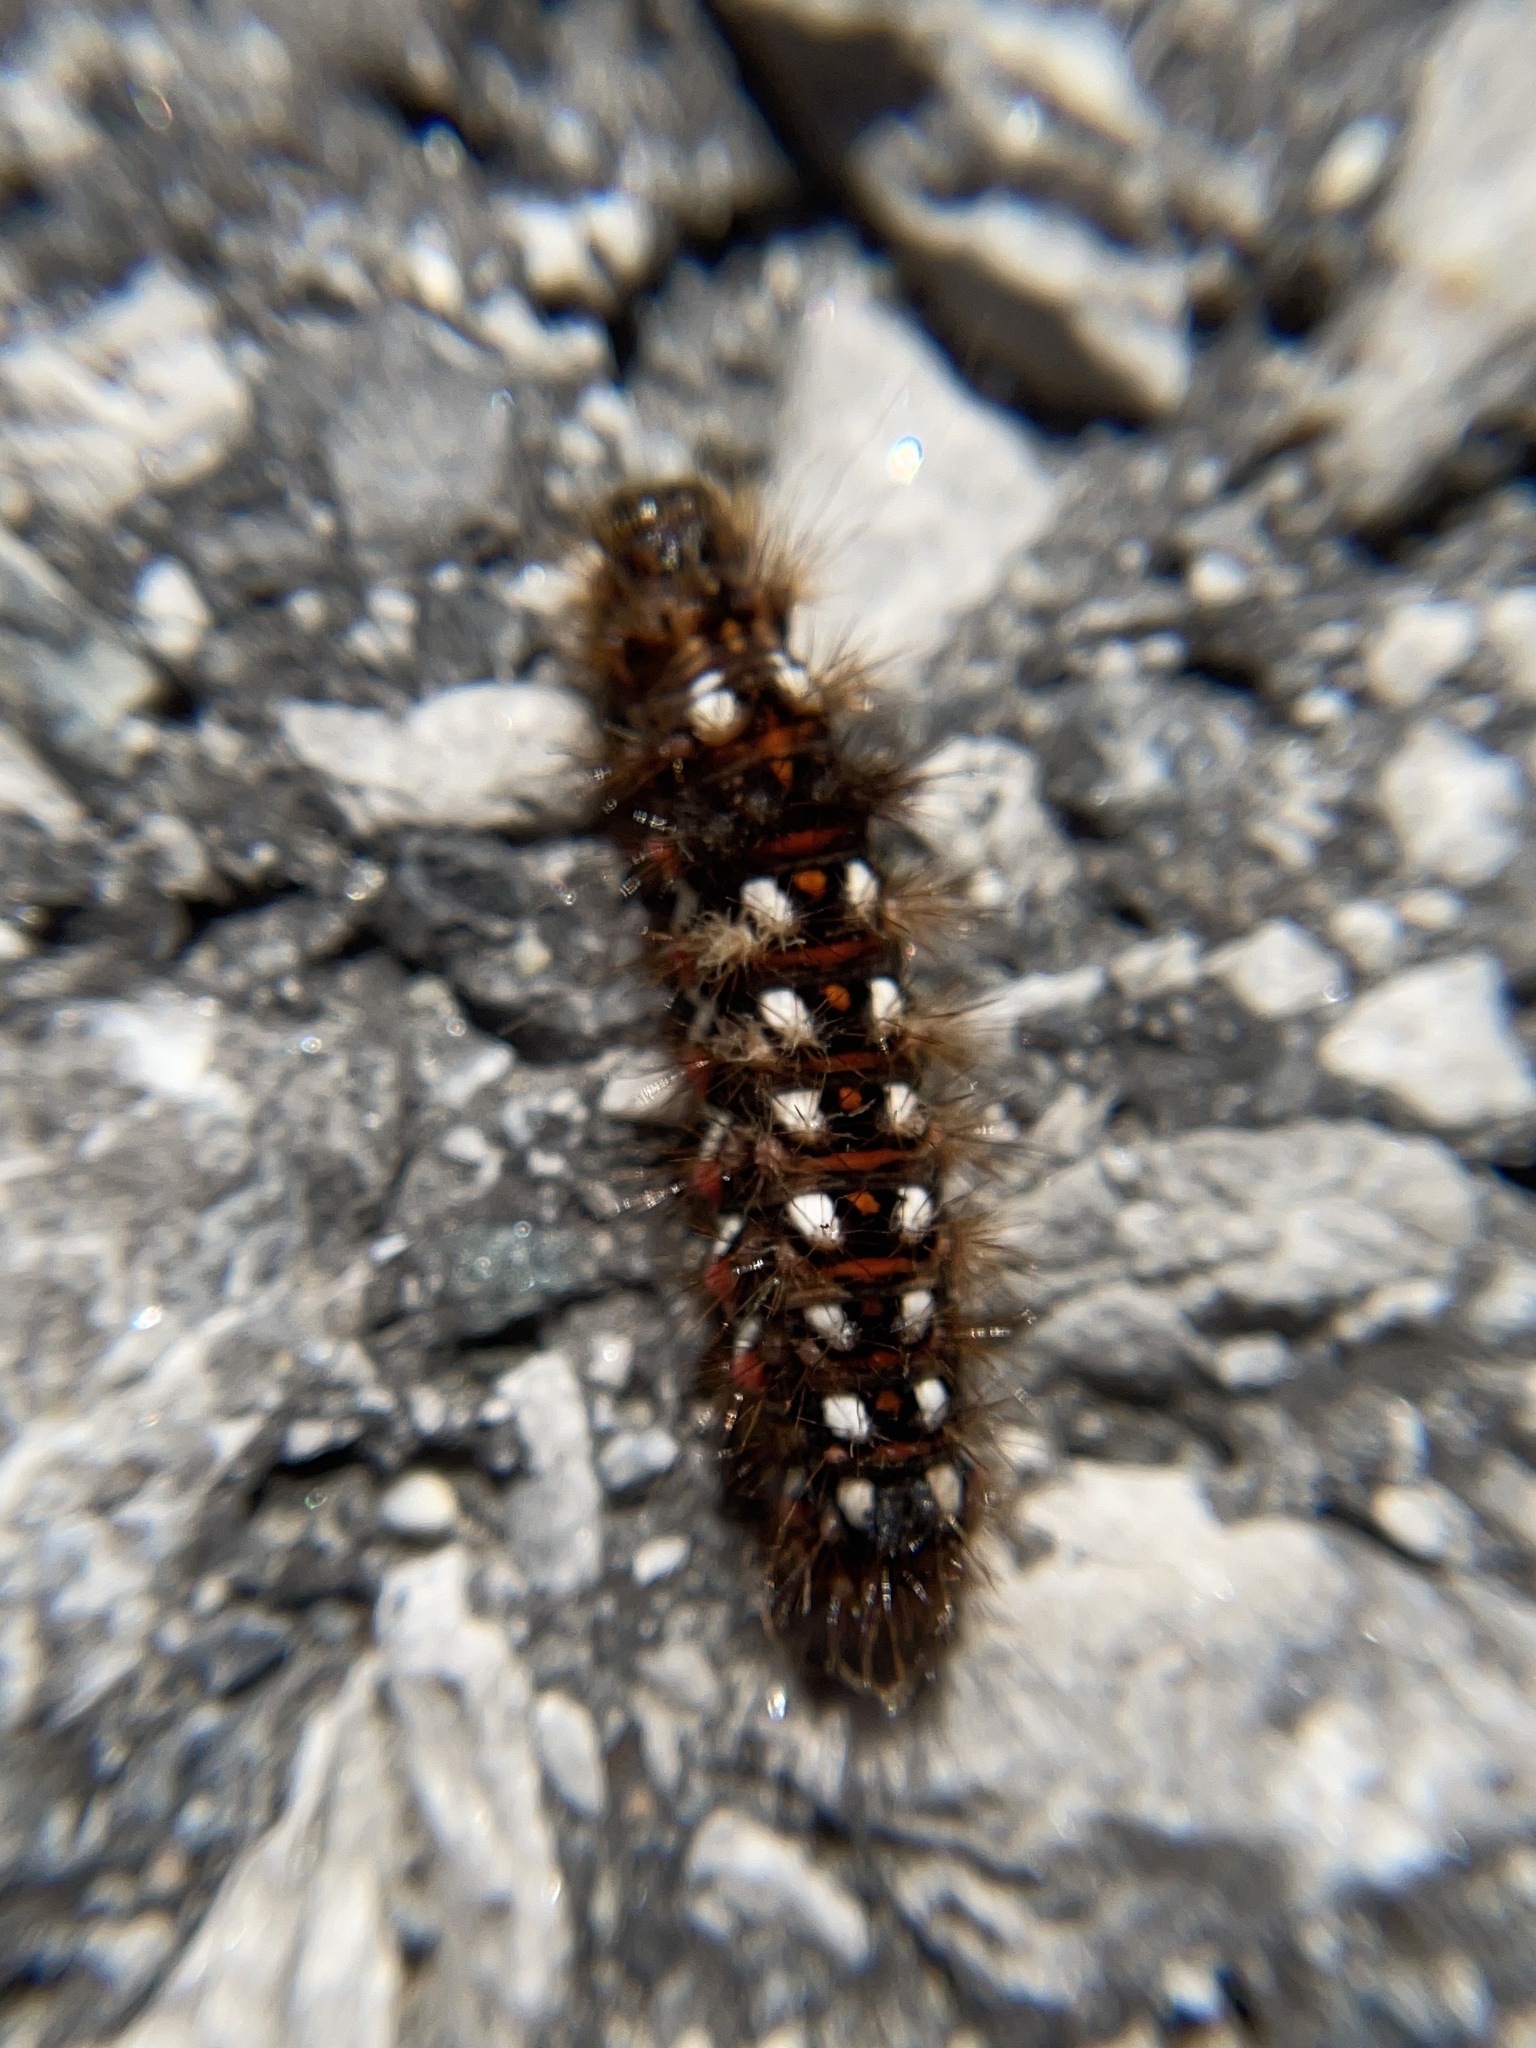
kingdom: Animalia
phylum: Arthropoda
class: Insecta
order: Lepidoptera
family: Noctuidae
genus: Acronicta
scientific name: Acronicta rumicis
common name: Knot grass
